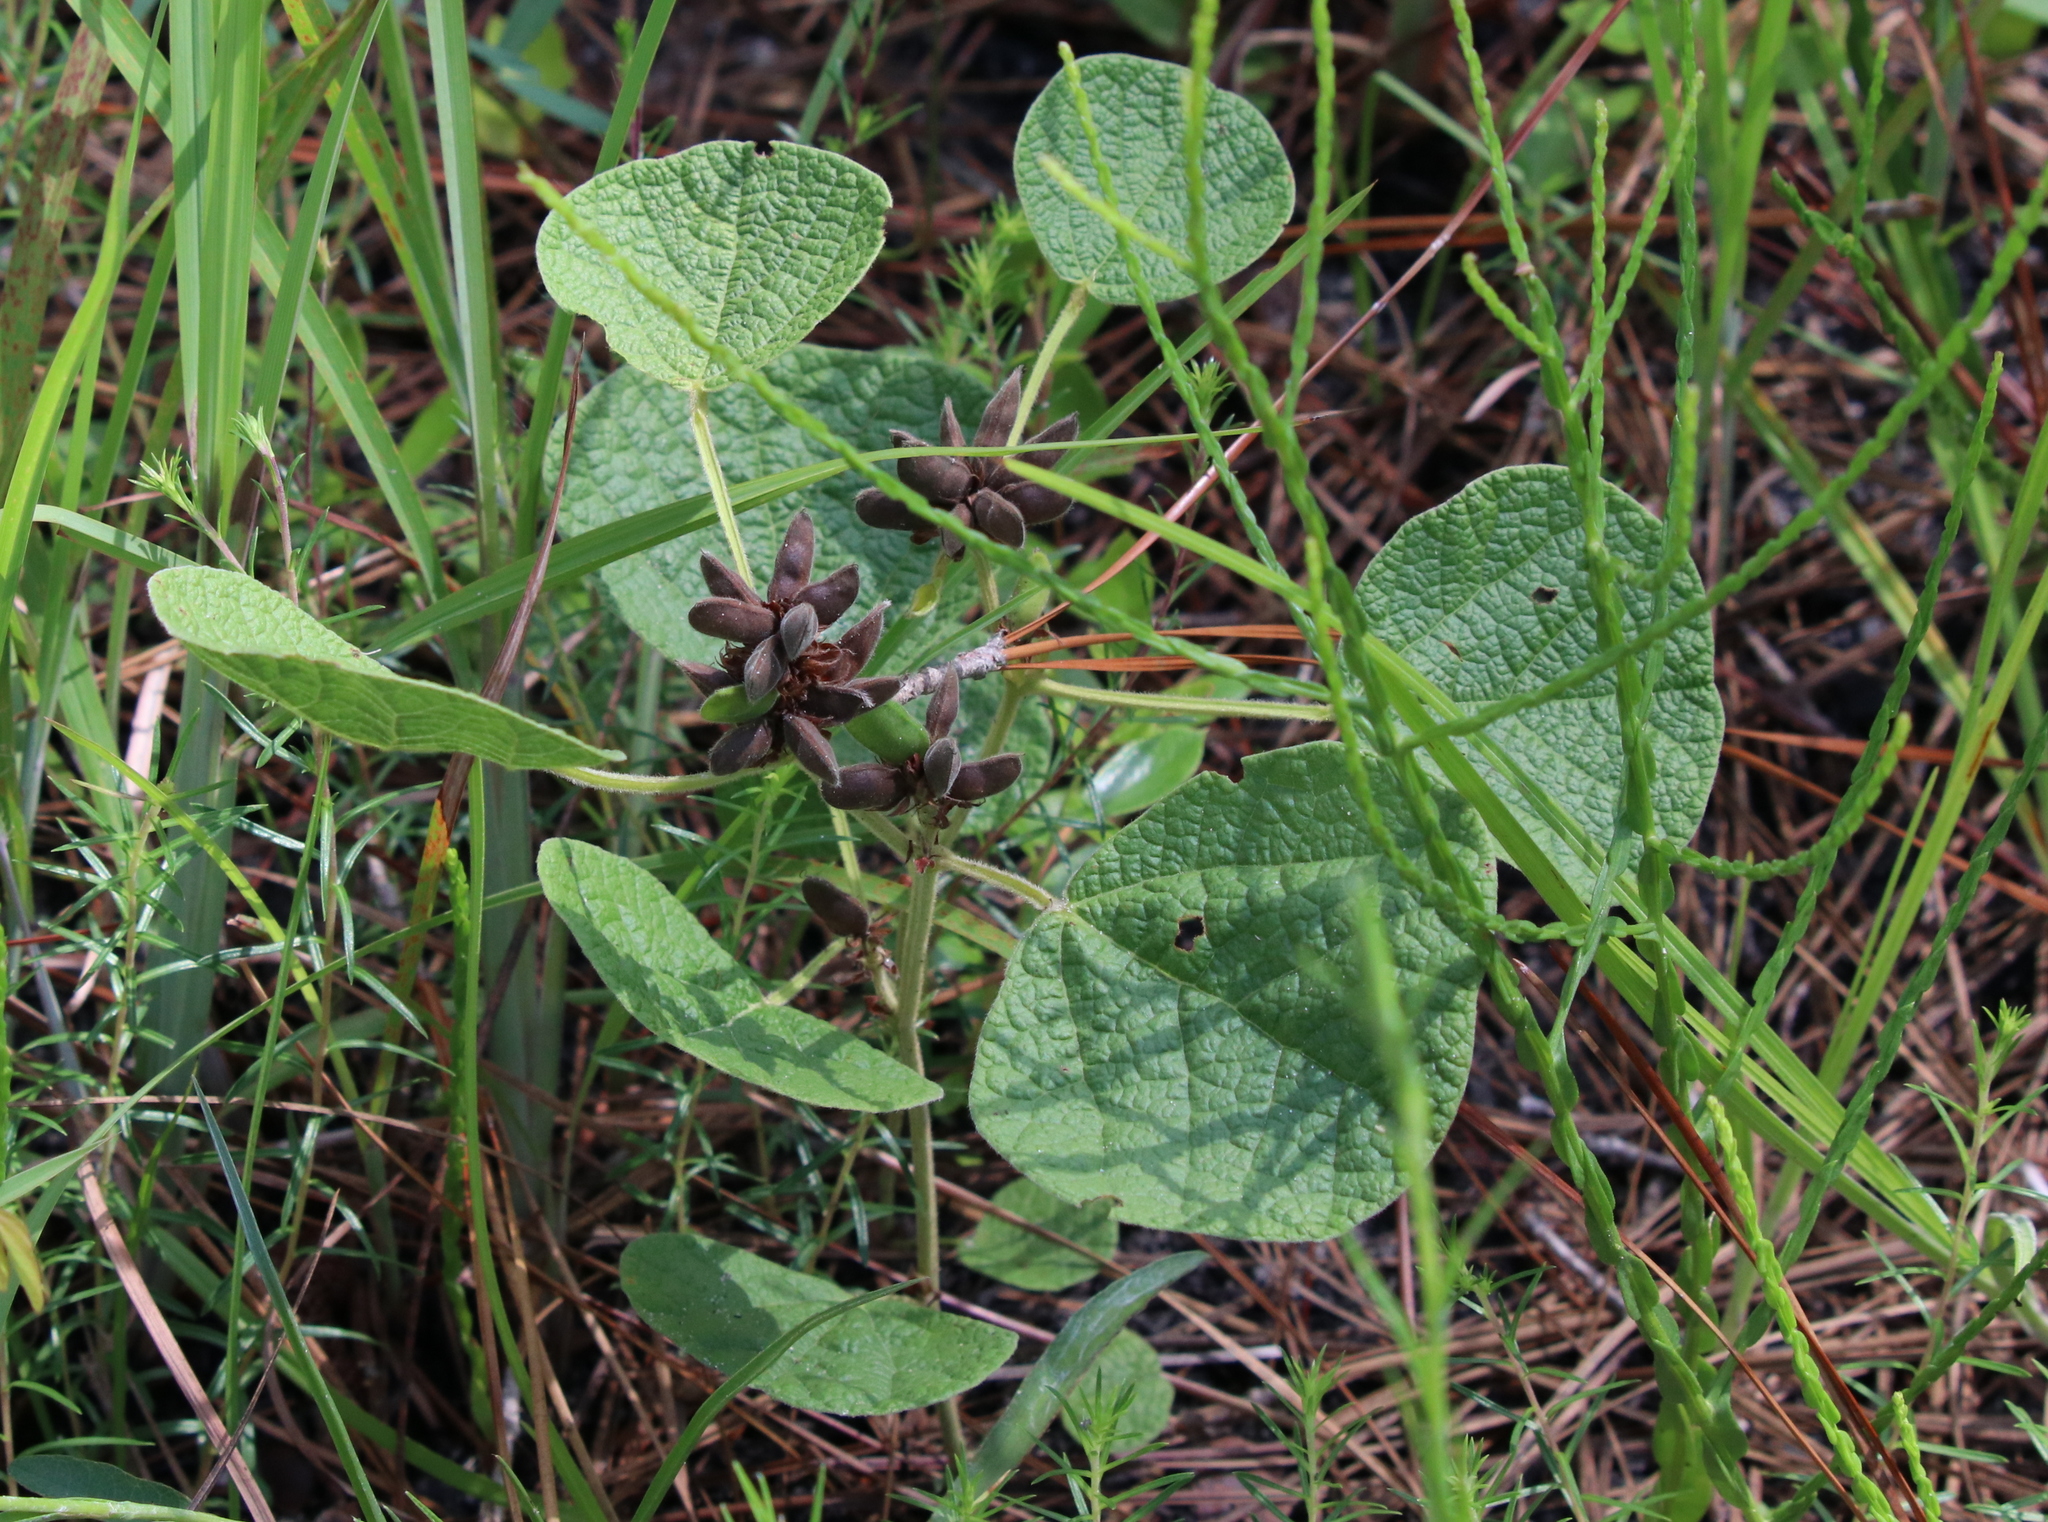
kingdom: Plantae
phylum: Tracheophyta
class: Magnoliopsida
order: Fabales
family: Fabaceae
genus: Rhynchosia
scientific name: Rhynchosia reniformis
